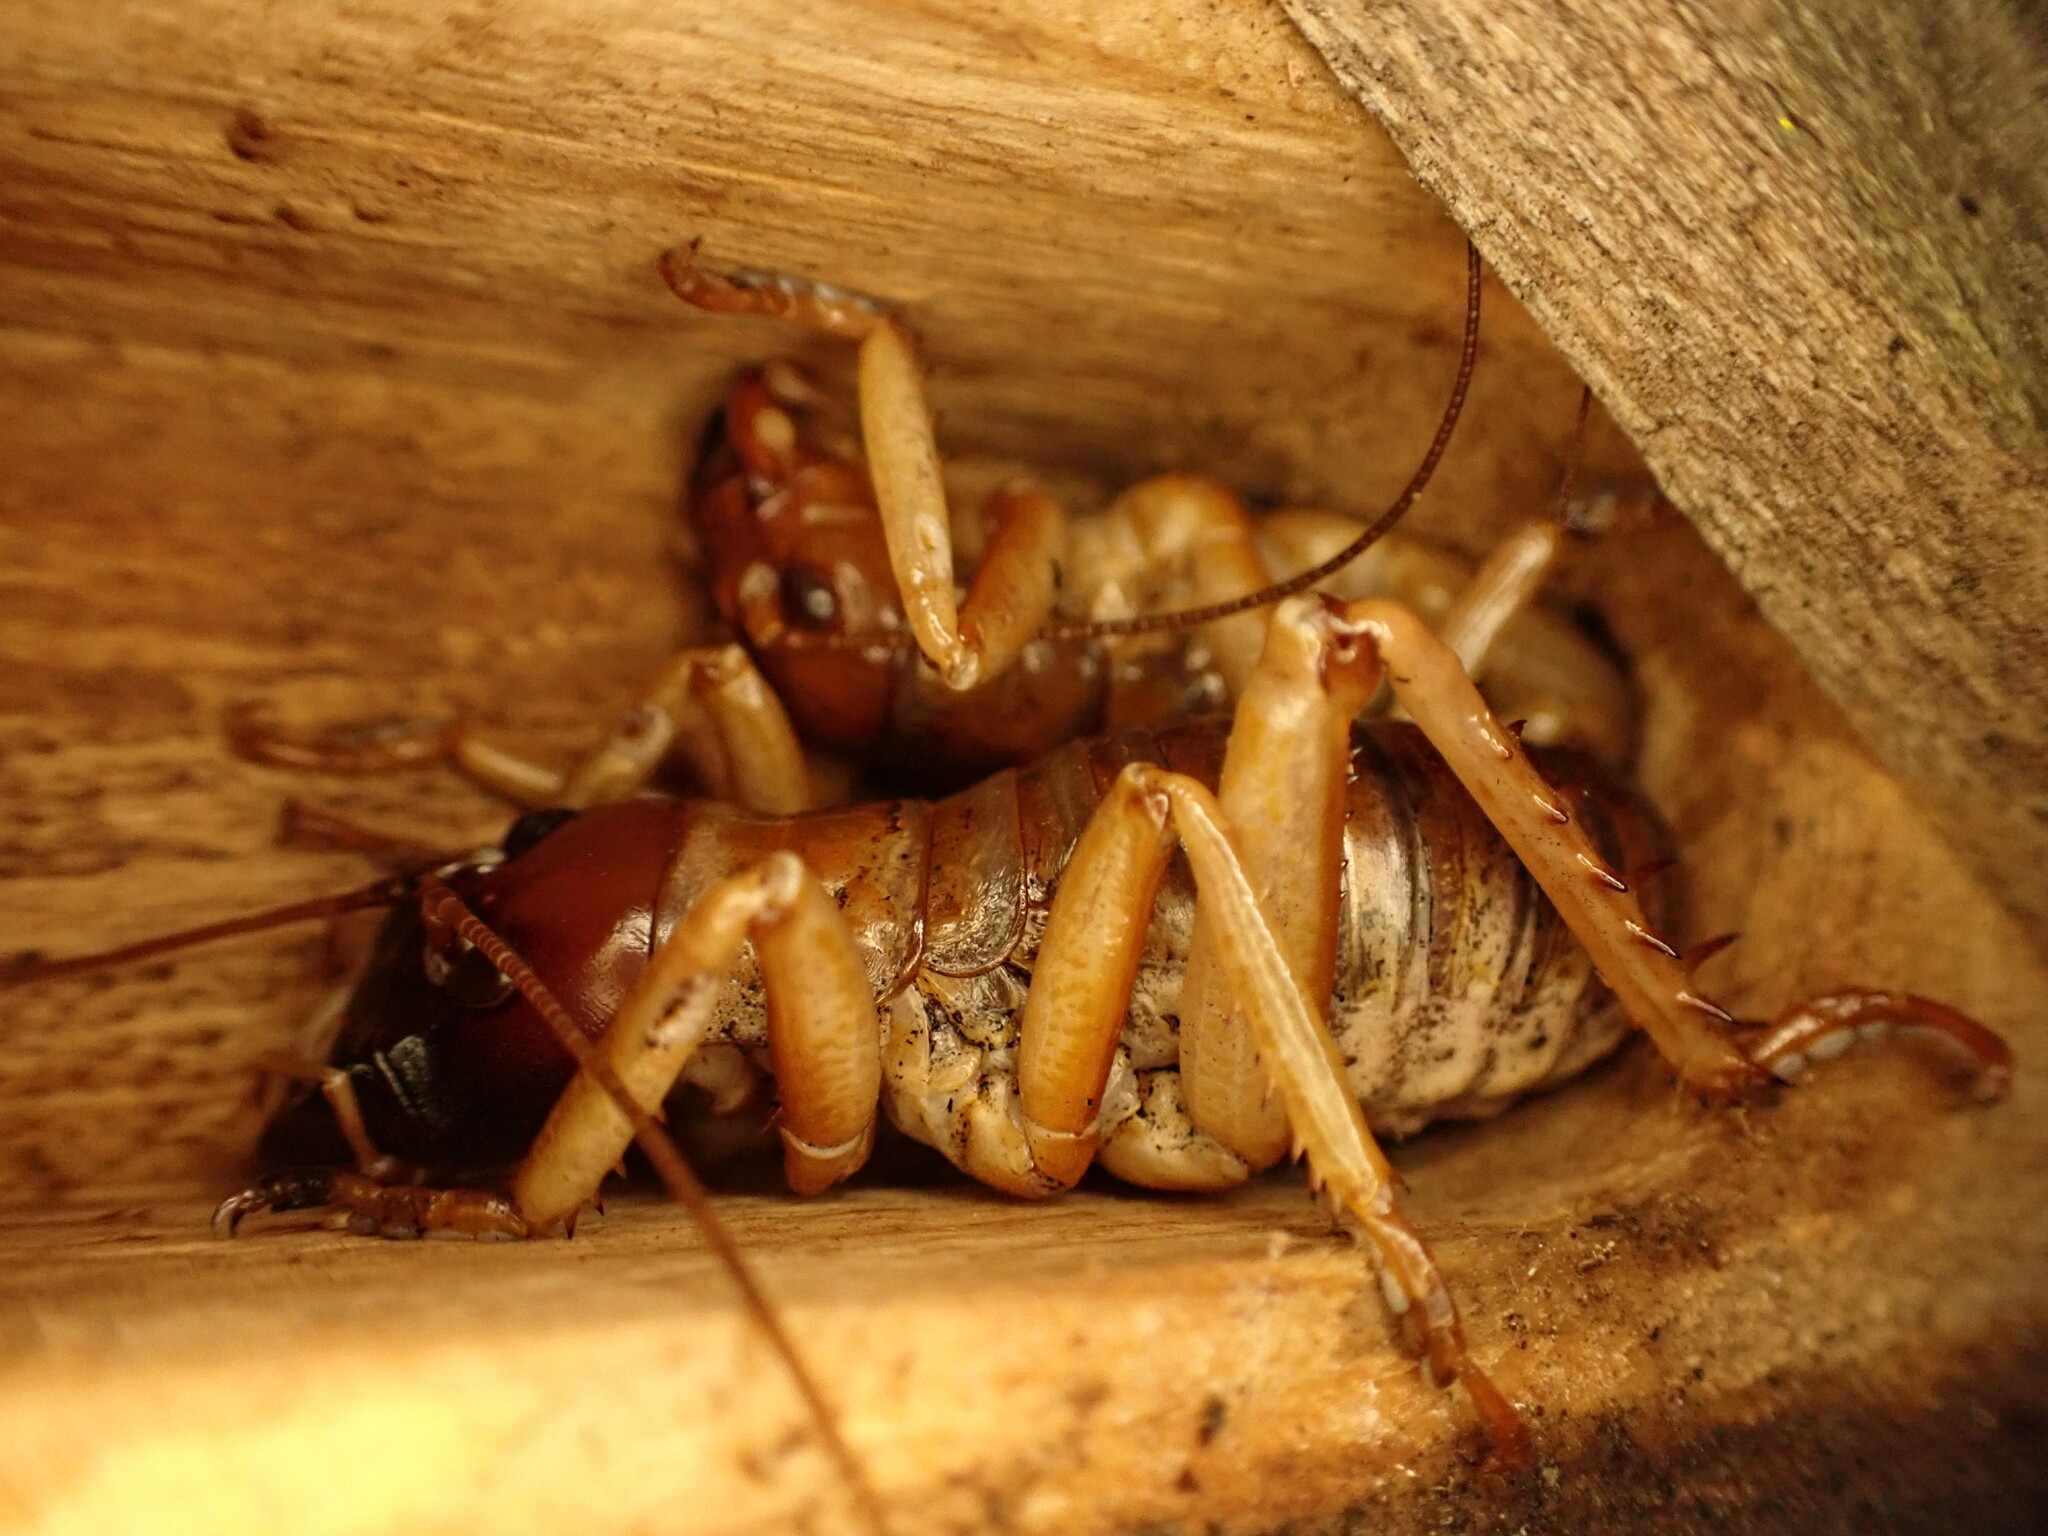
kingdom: Animalia
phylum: Arthropoda
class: Insecta
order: Orthoptera
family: Anostostomatidae
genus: Hemideina
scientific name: Hemideina ricta
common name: Banks peninsula tree weta
